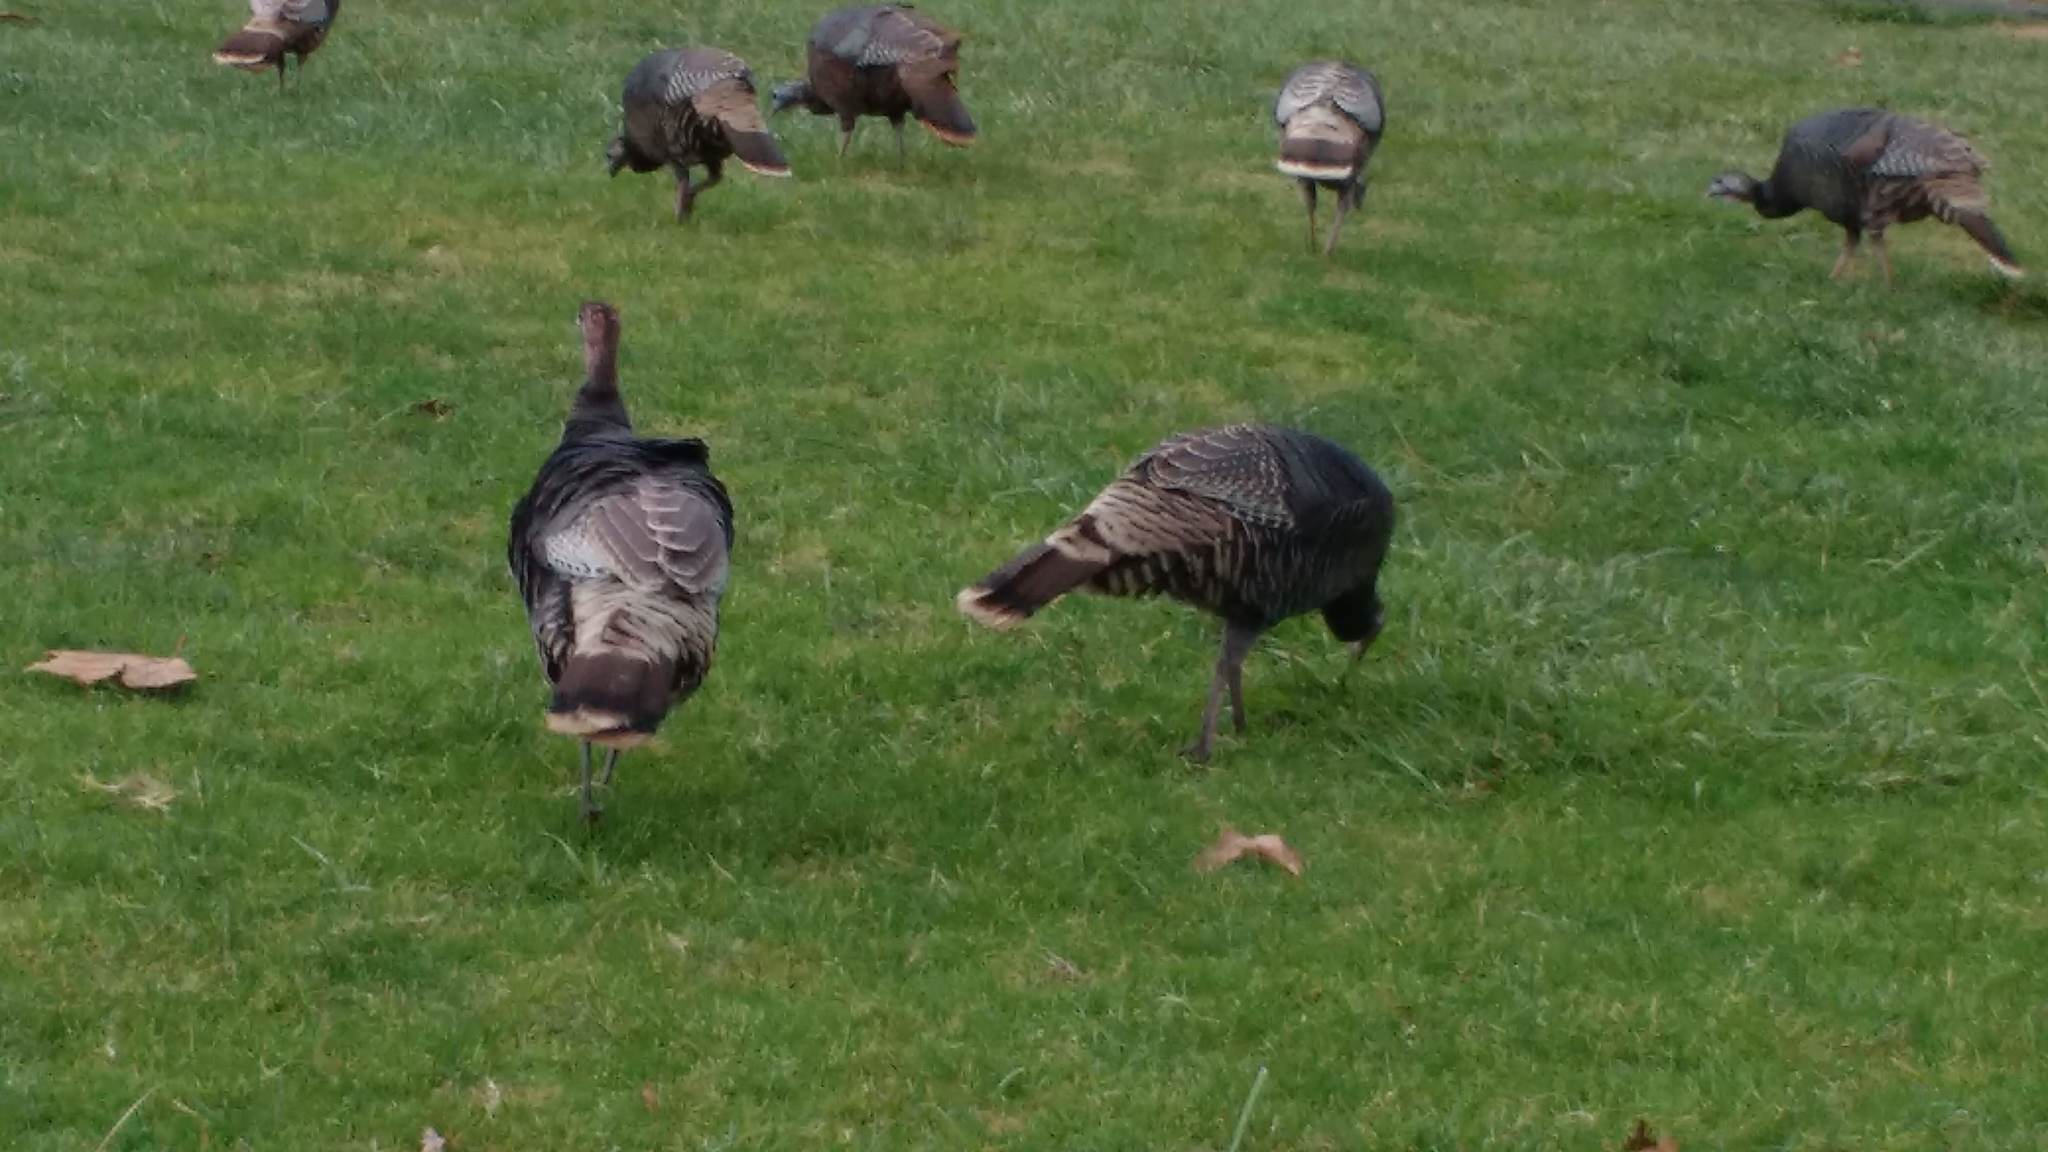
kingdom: Animalia
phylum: Chordata
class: Aves
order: Galliformes
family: Phasianidae
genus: Meleagris
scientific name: Meleagris gallopavo
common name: Wild turkey
